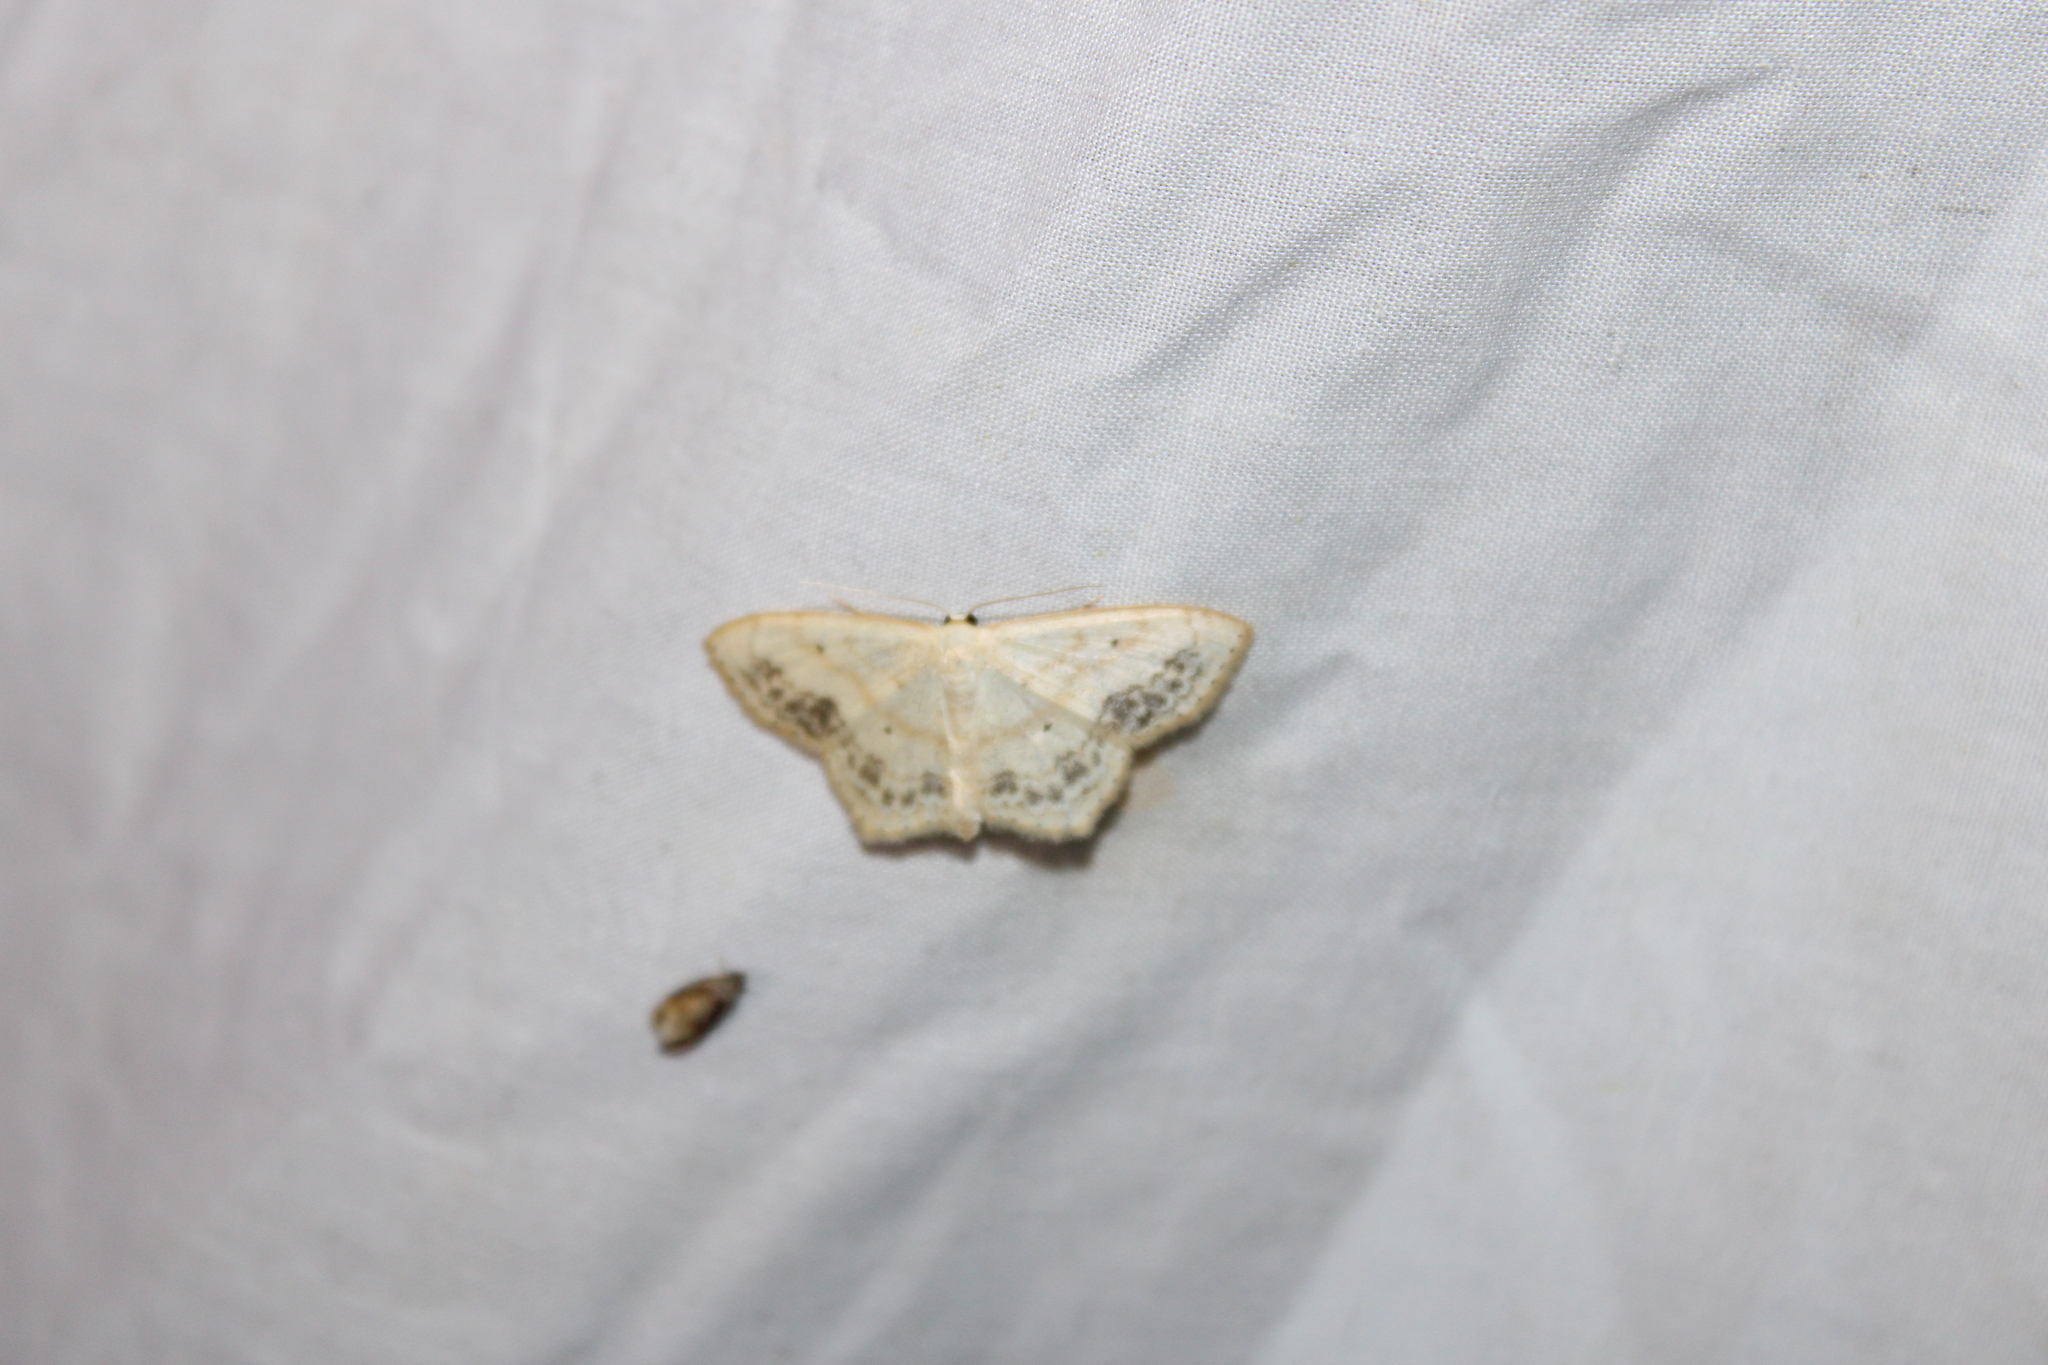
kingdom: Animalia
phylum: Arthropoda
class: Insecta
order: Lepidoptera
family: Geometridae
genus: Scopula
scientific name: Scopula limboundata
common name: Large lace border
